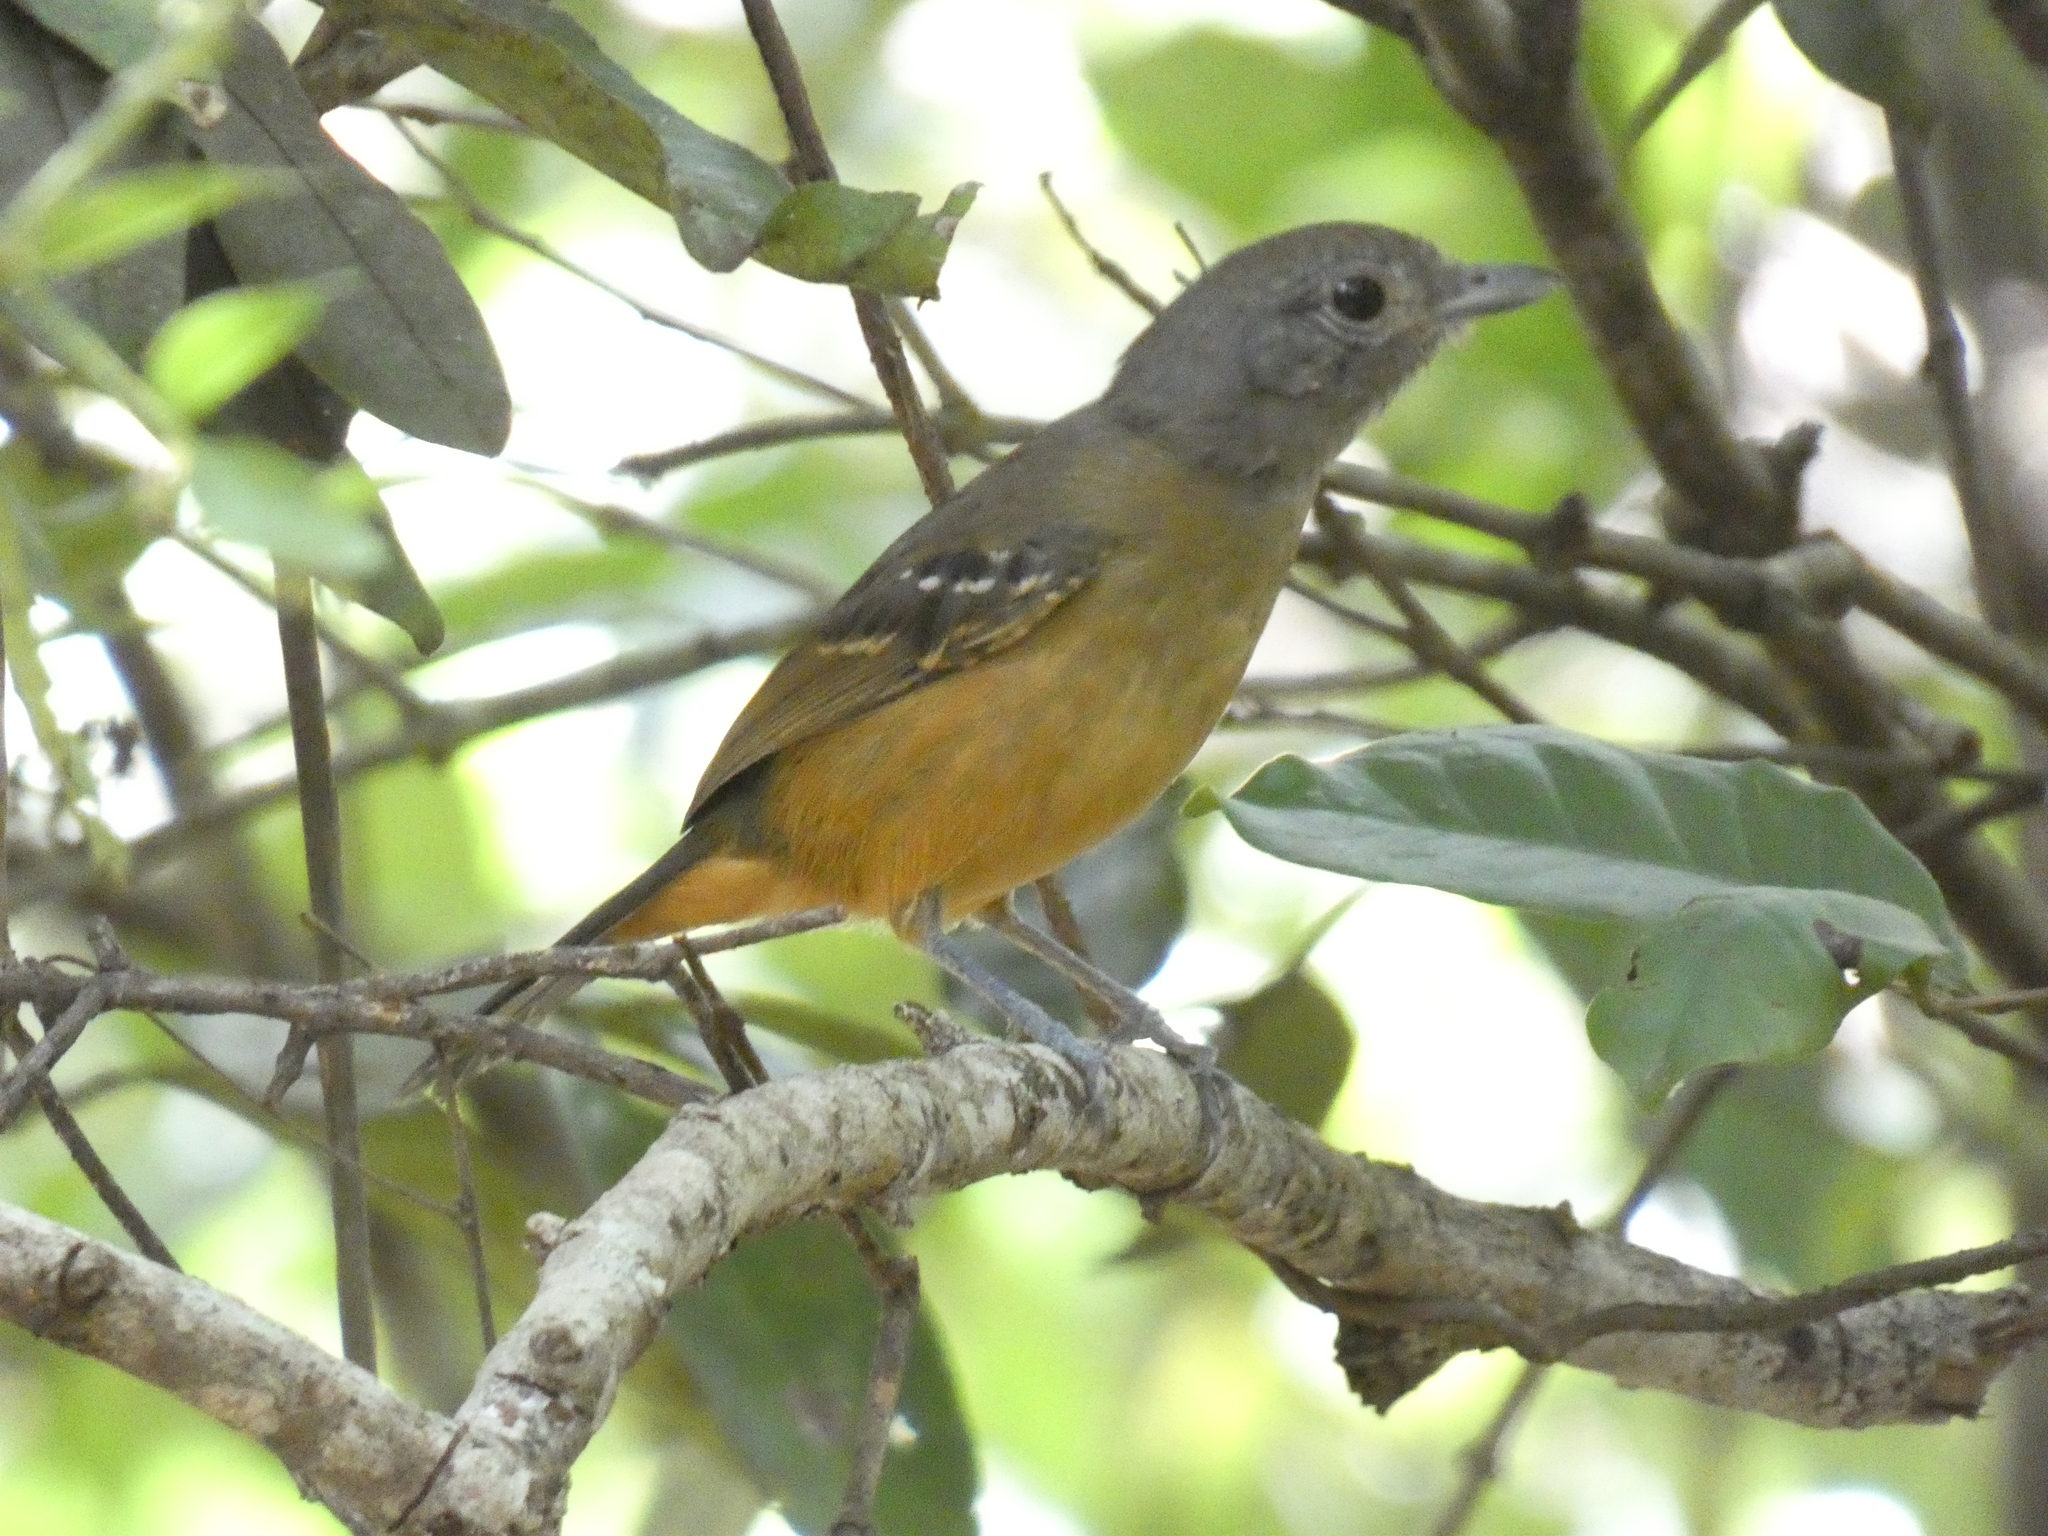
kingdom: Animalia
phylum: Chordata
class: Aves
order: Passeriformes
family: Thamnophilidae
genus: Thamnophilus
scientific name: Thamnophilus caerulescens
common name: Variable antshrike
